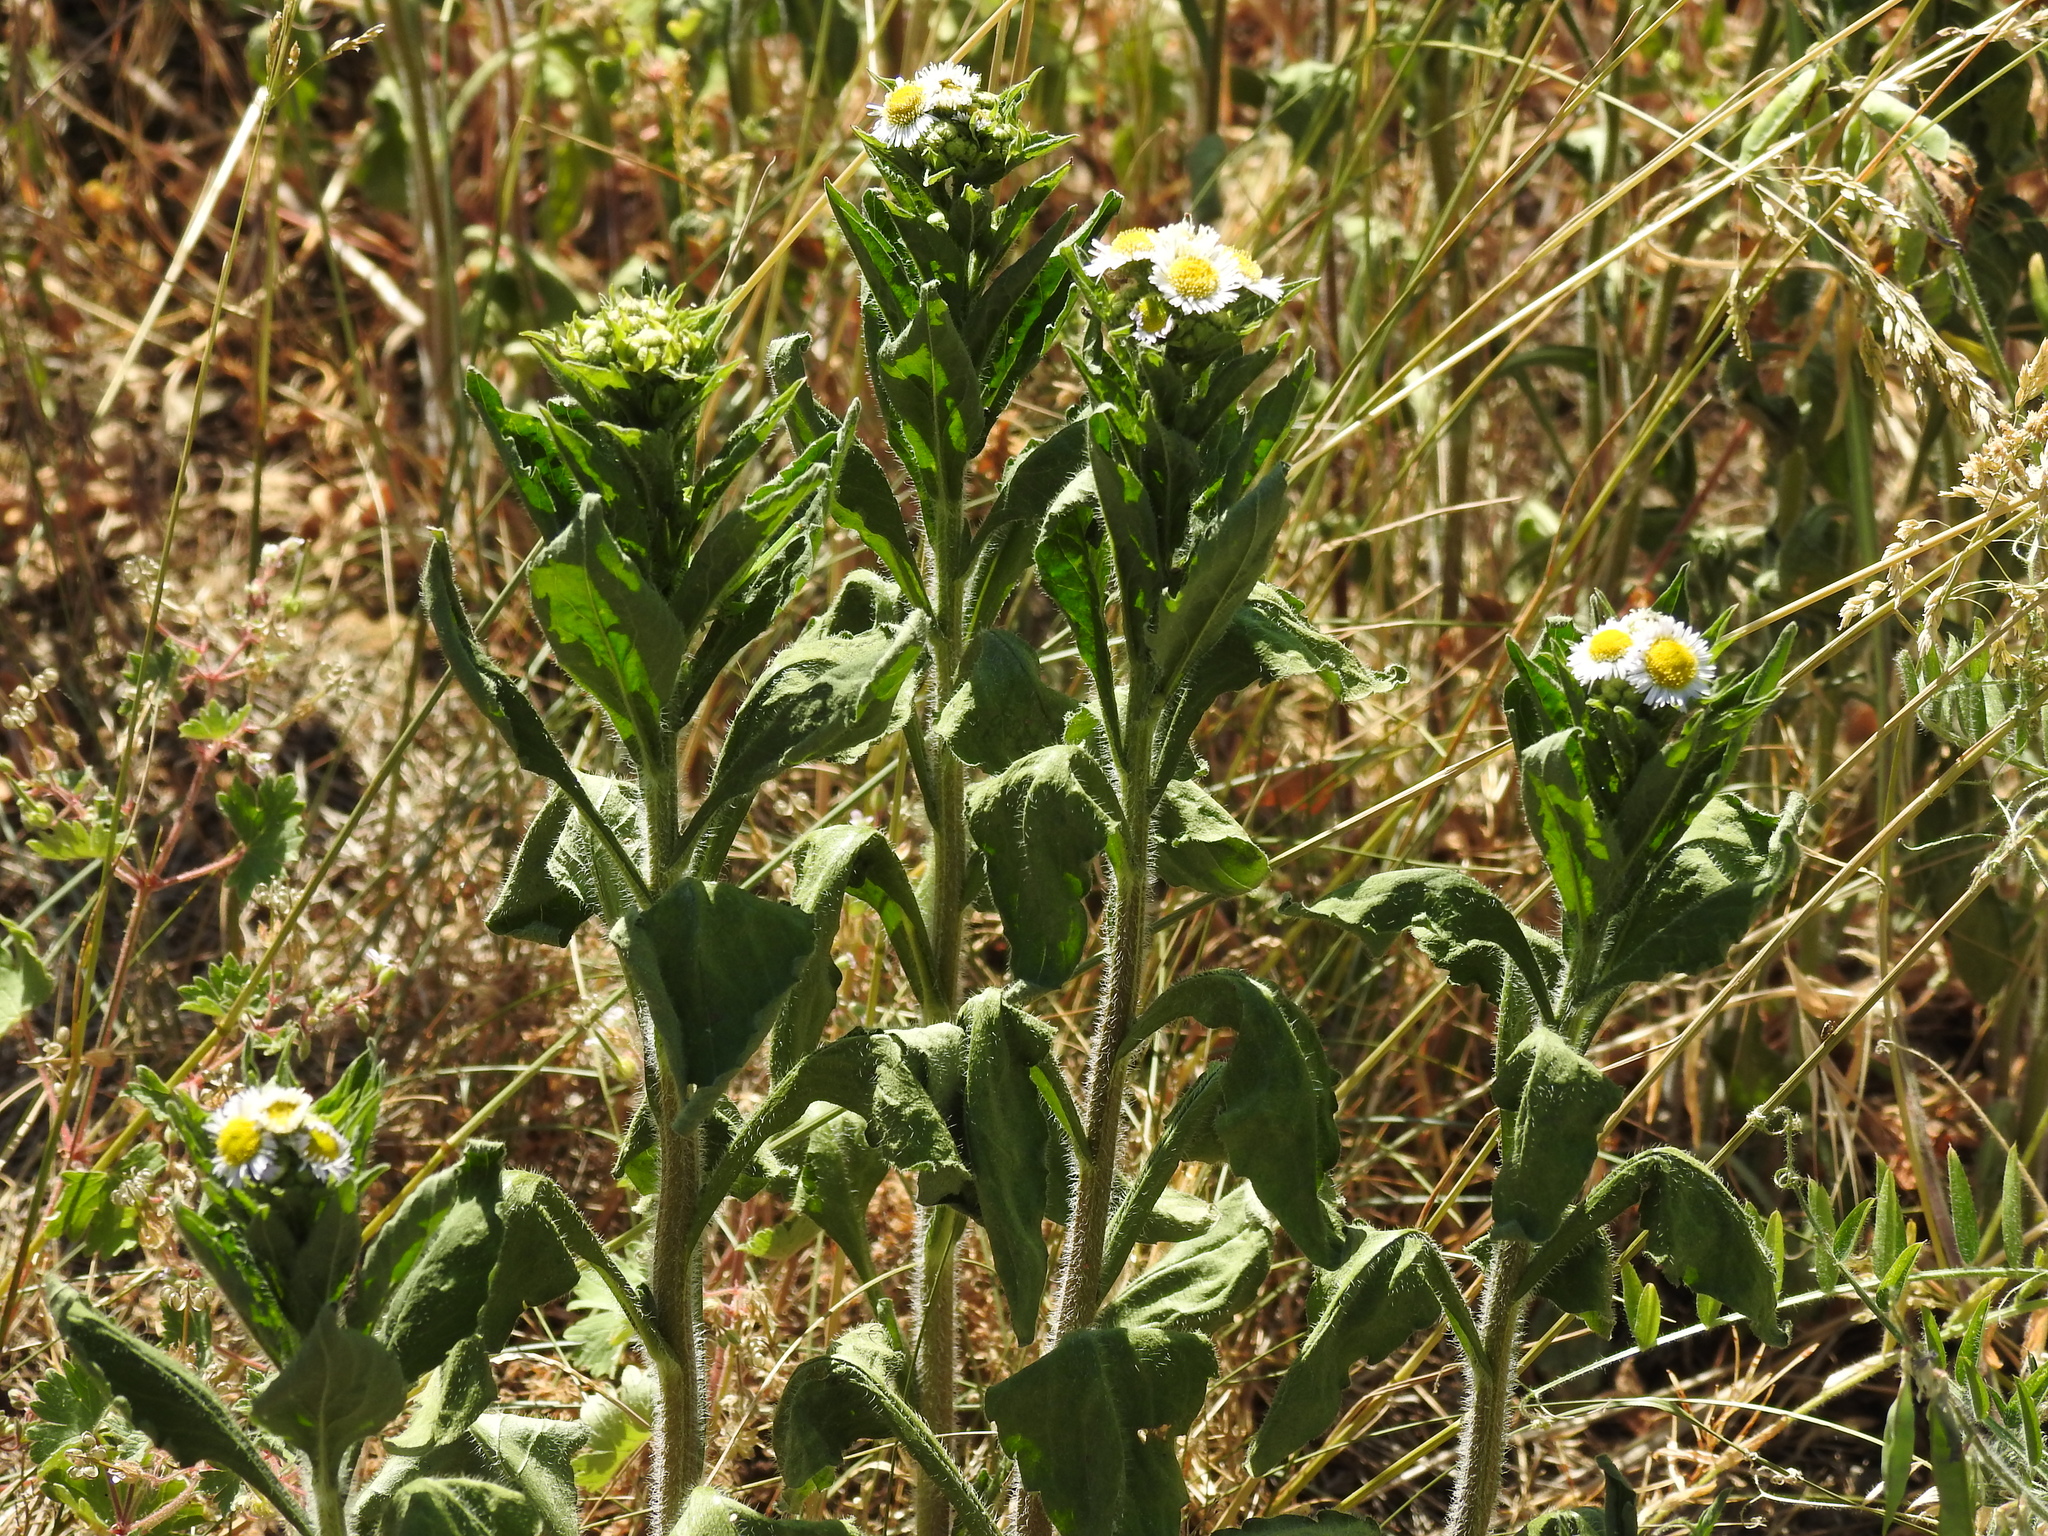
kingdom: Plantae
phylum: Tracheophyta
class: Magnoliopsida
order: Asterales
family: Asteraceae
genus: Erigeron
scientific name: Erigeron annuus
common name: Tall fleabane
